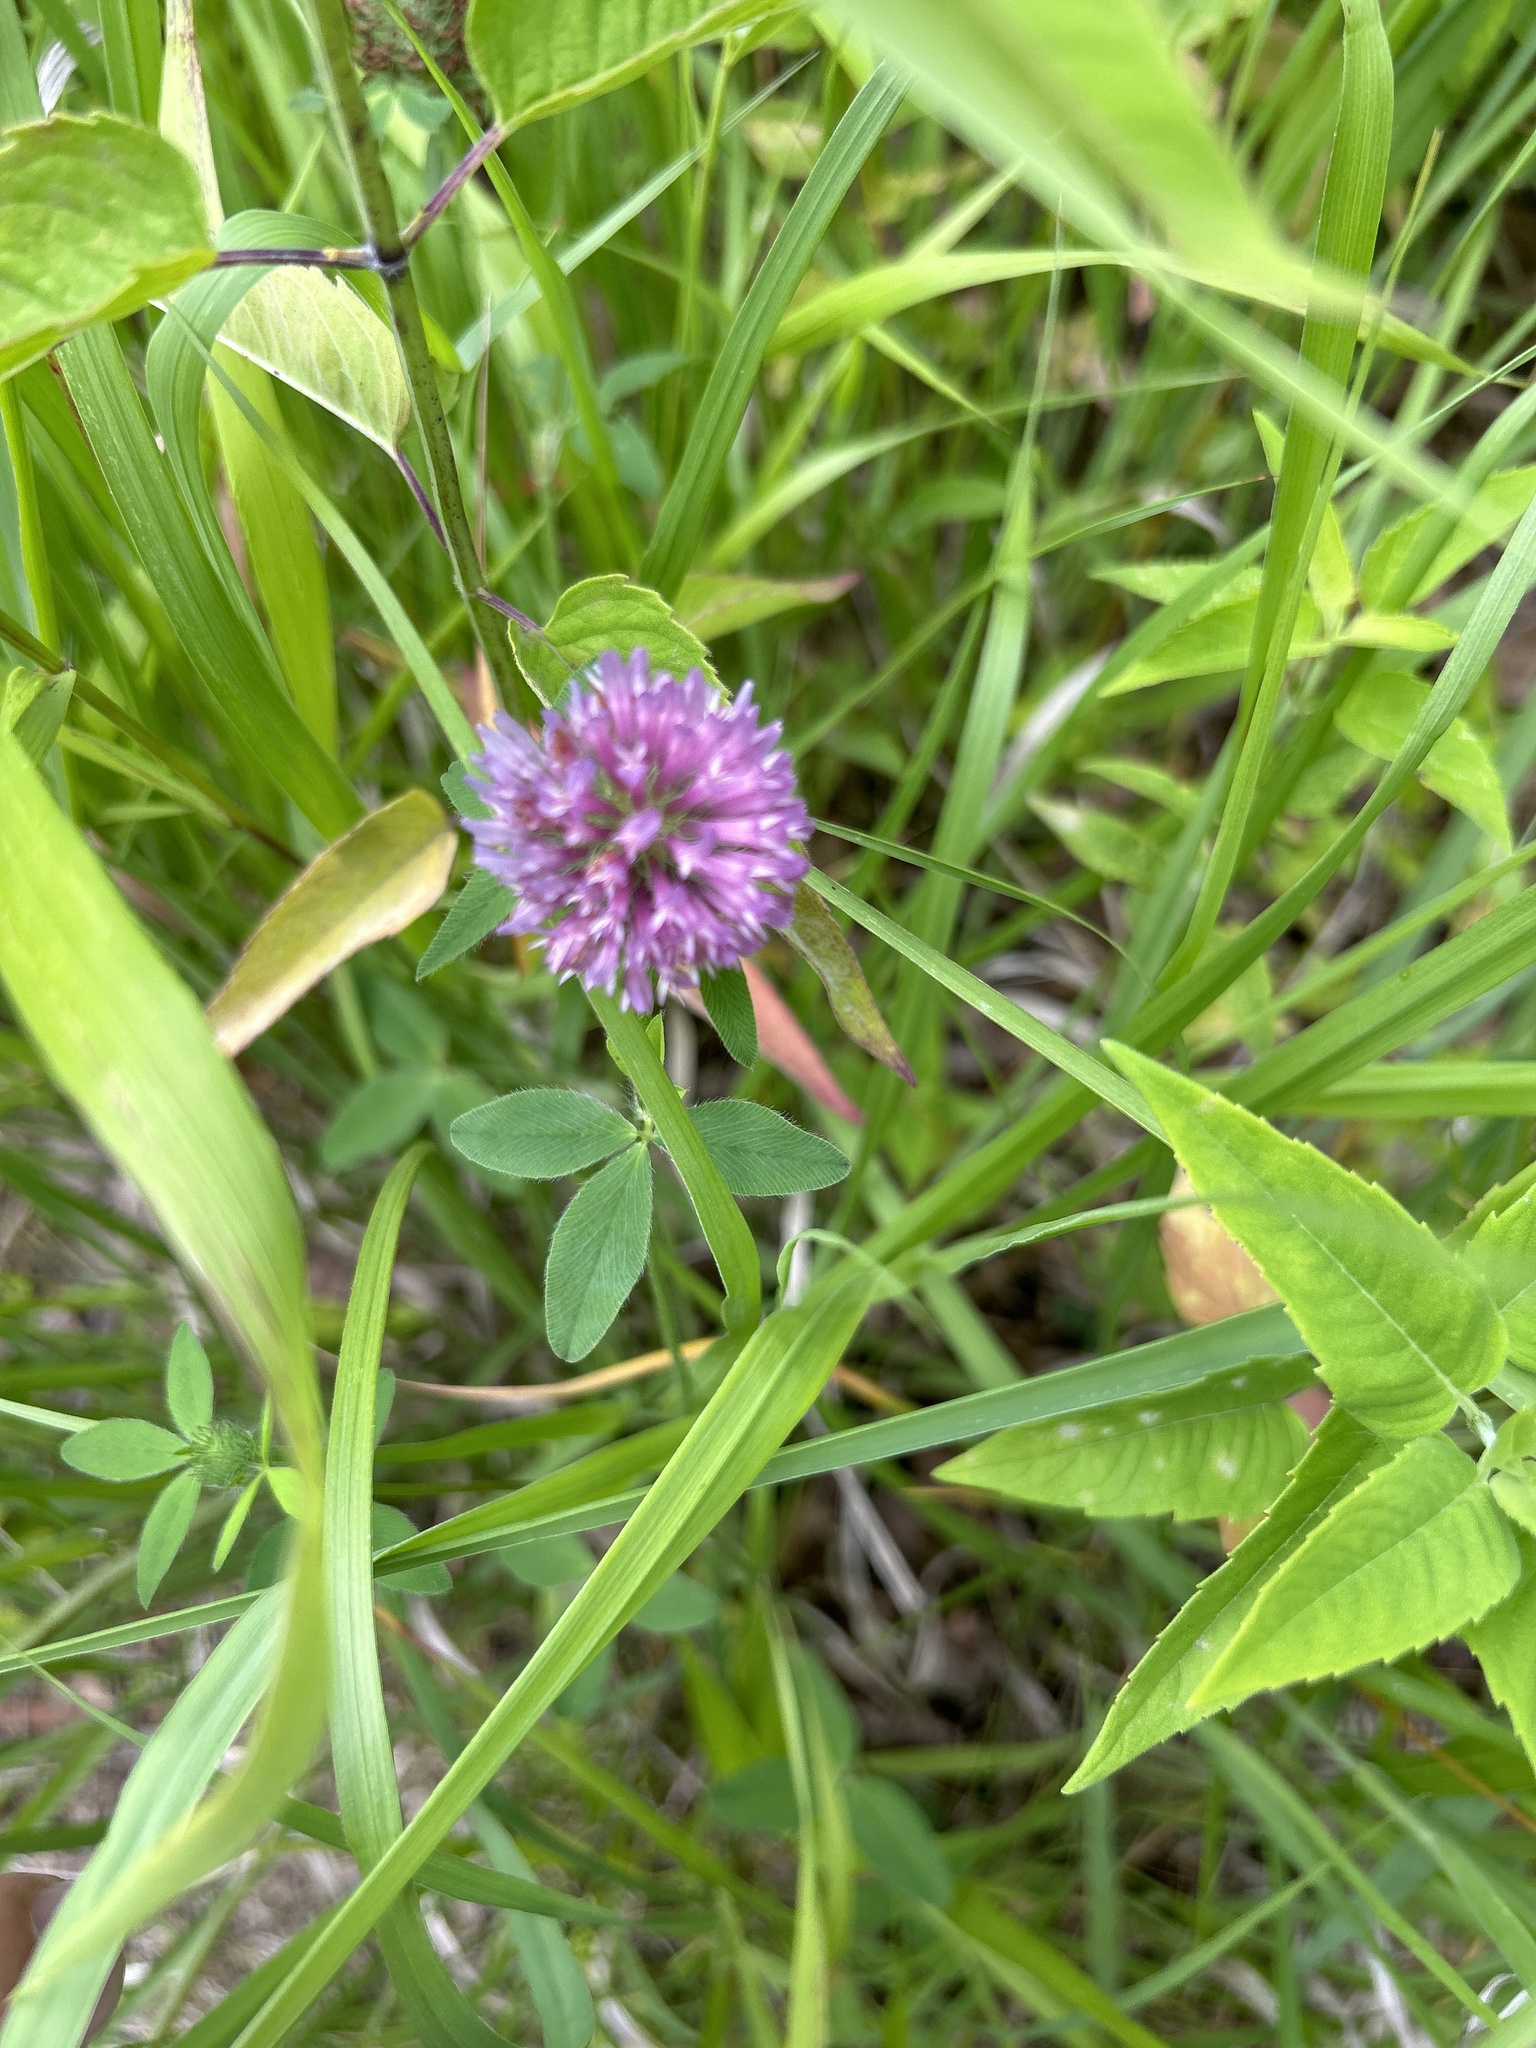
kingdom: Plantae
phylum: Tracheophyta
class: Magnoliopsida
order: Fabales
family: Fabaceae
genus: Trifolium
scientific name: Trifolium pratense
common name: Red clover
